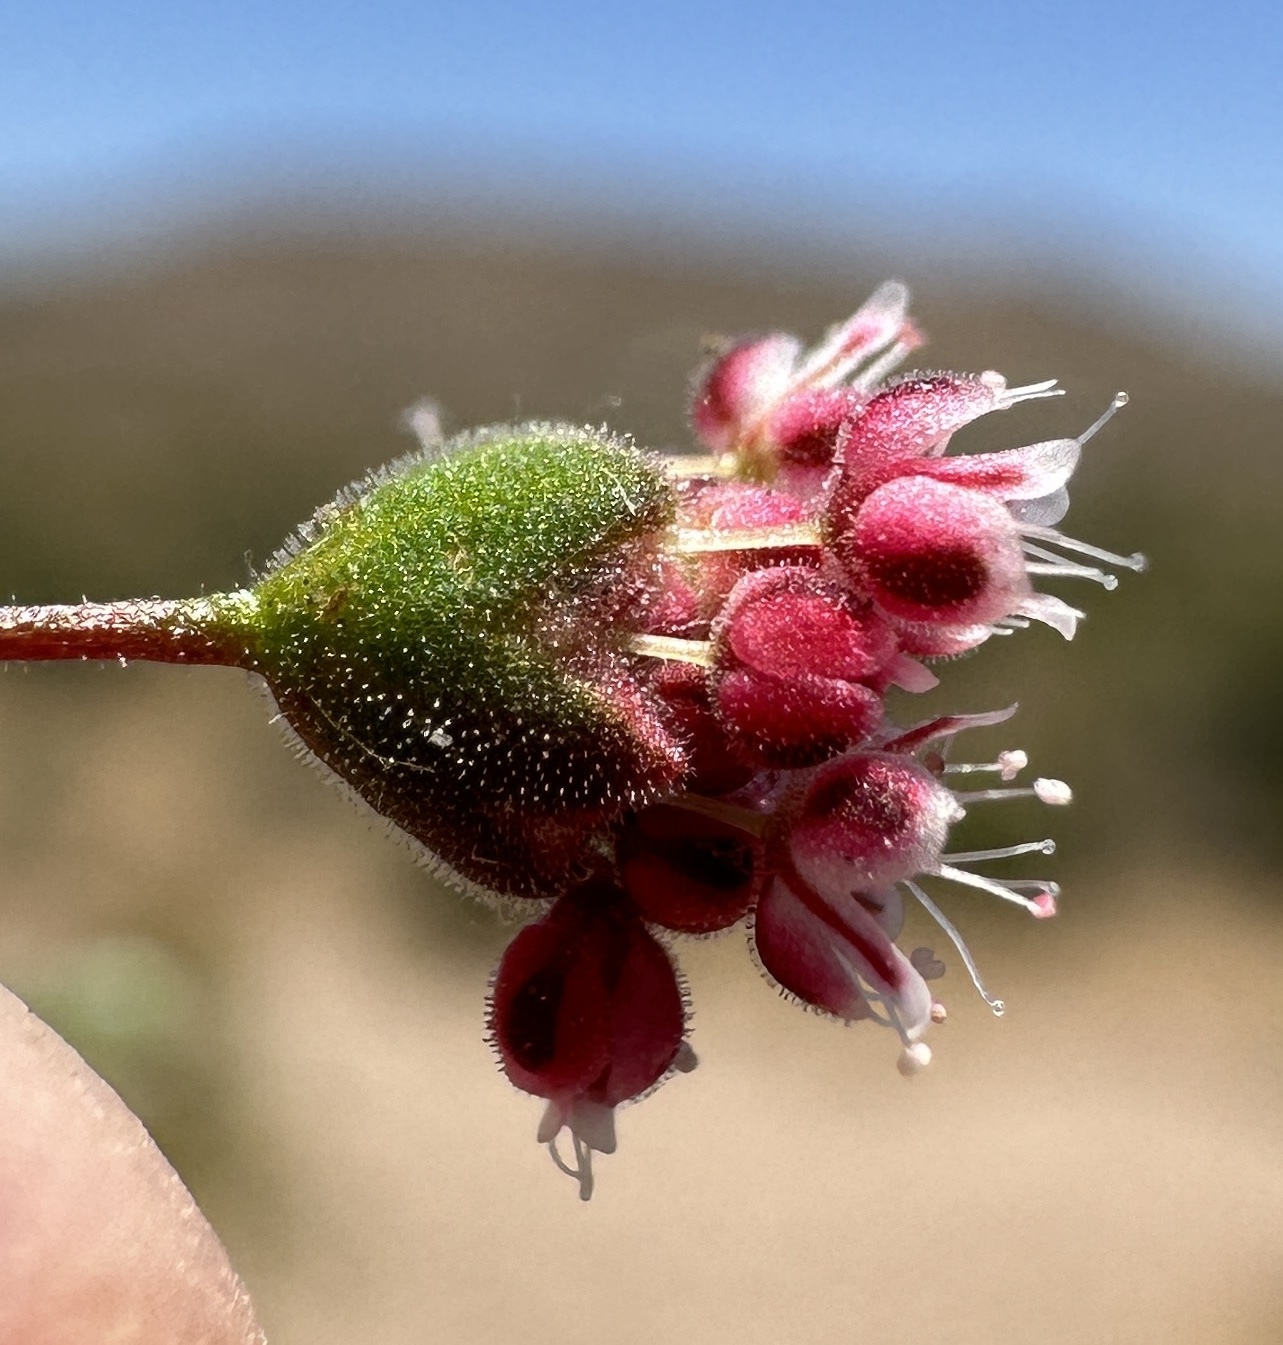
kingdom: Plantae
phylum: Tracheophyta
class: Magnoliopsida
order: Caryophyllales
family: Polygonaceae
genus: Eriogonum
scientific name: Eriogonum maculatum
